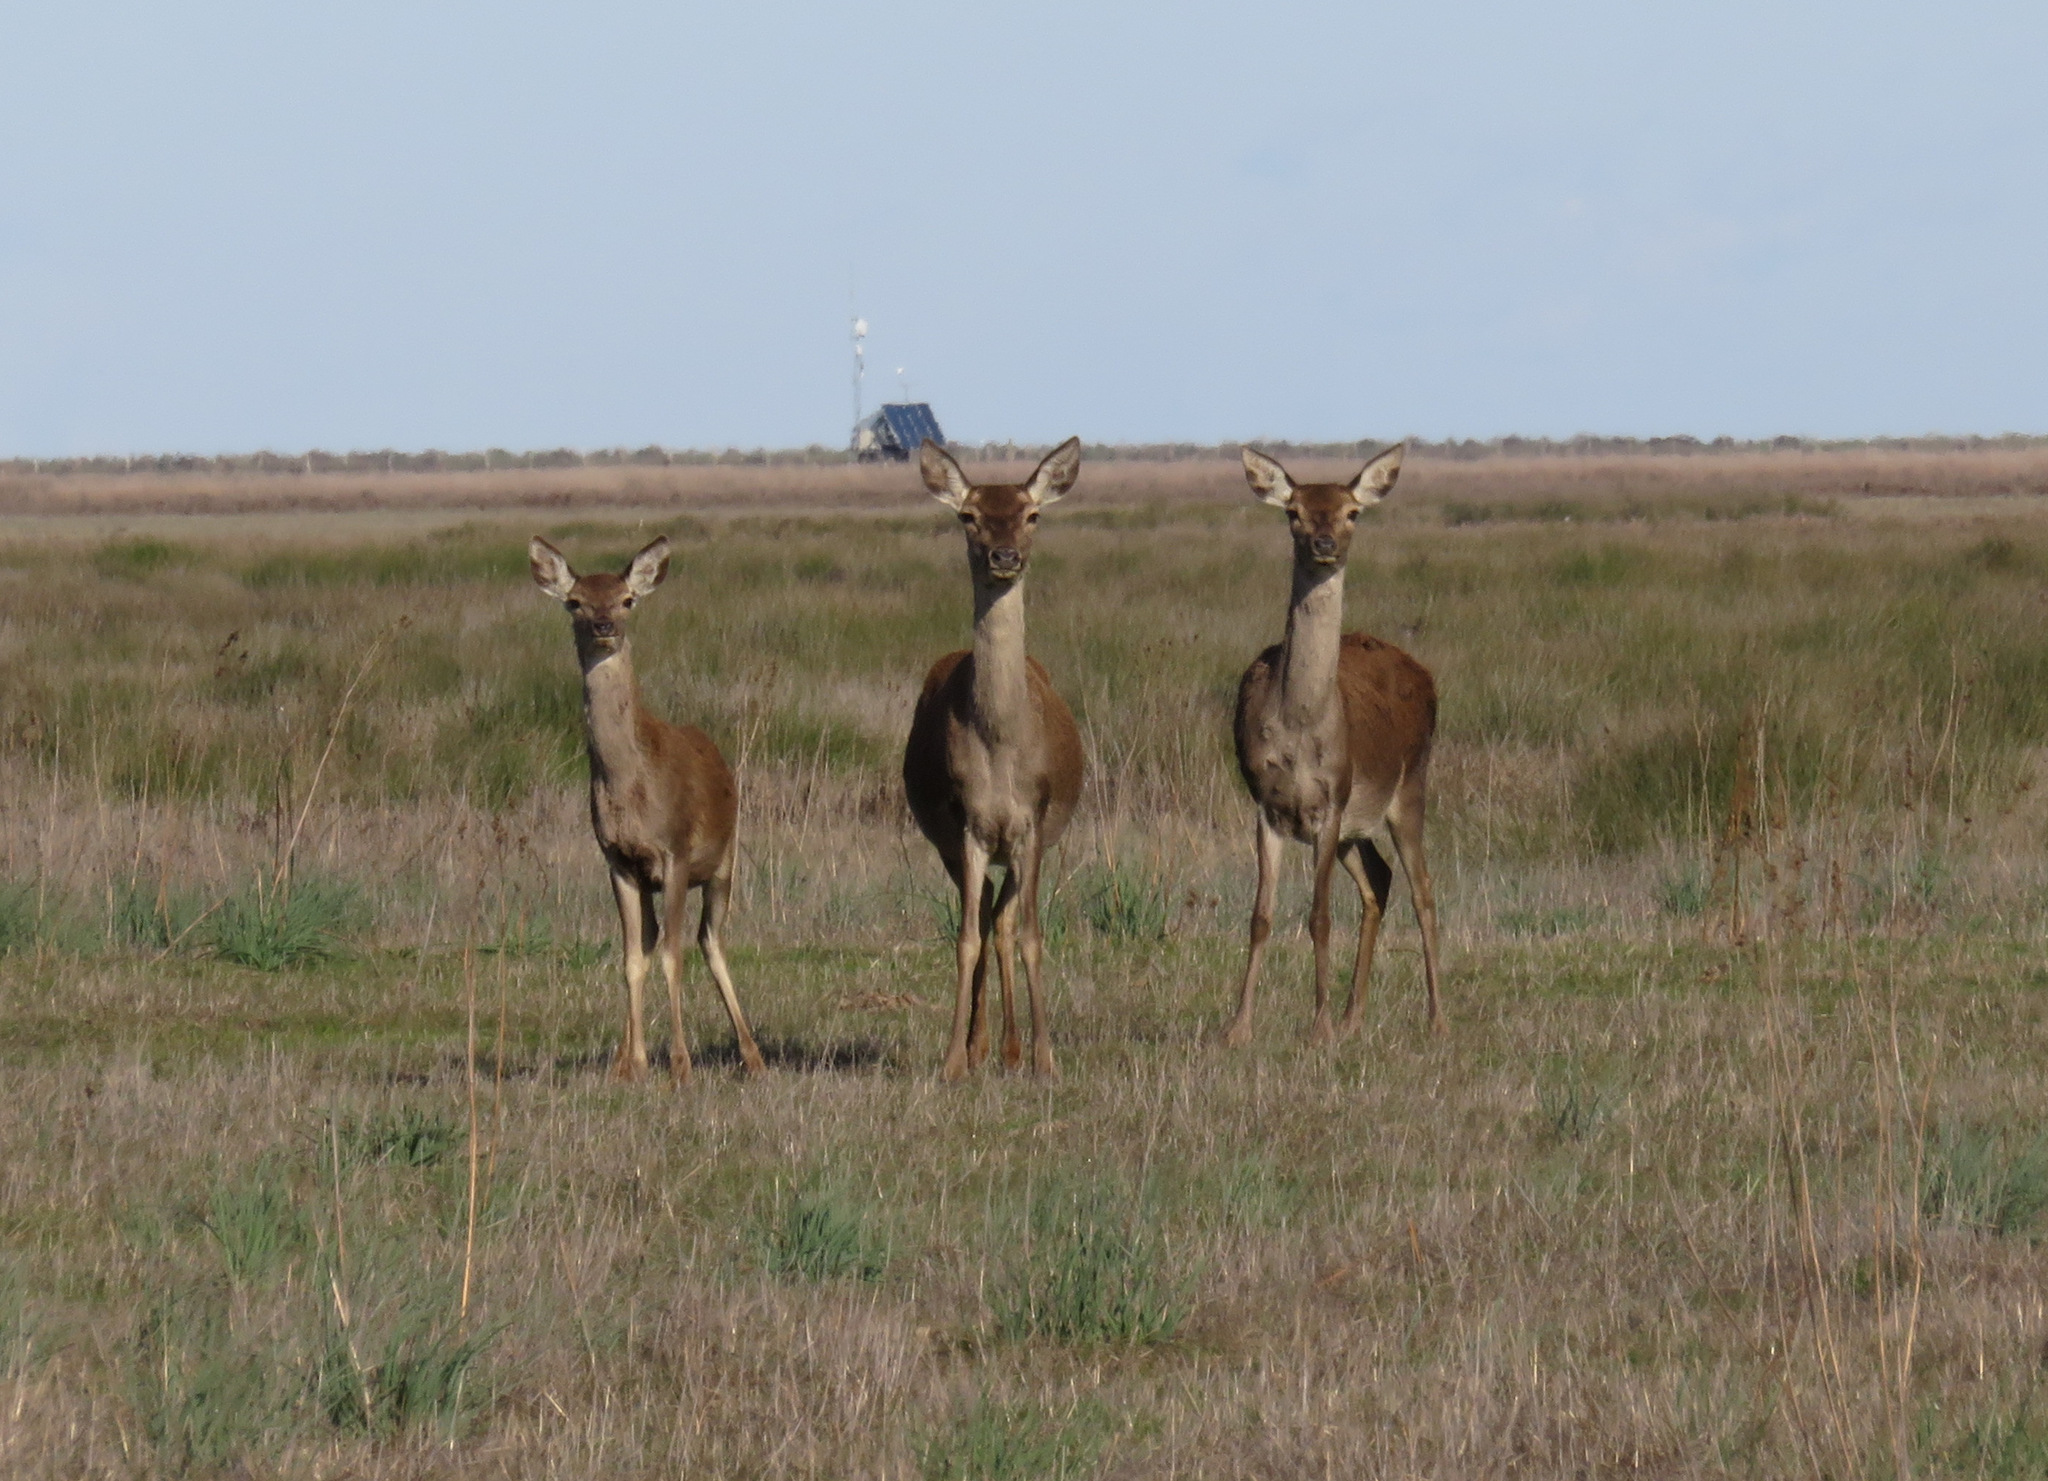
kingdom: Animalia
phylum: Chordata
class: Mammalia
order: Artiodactyla
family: Cervidae
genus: Cervus
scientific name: Cervus elaphus
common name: Red deer
